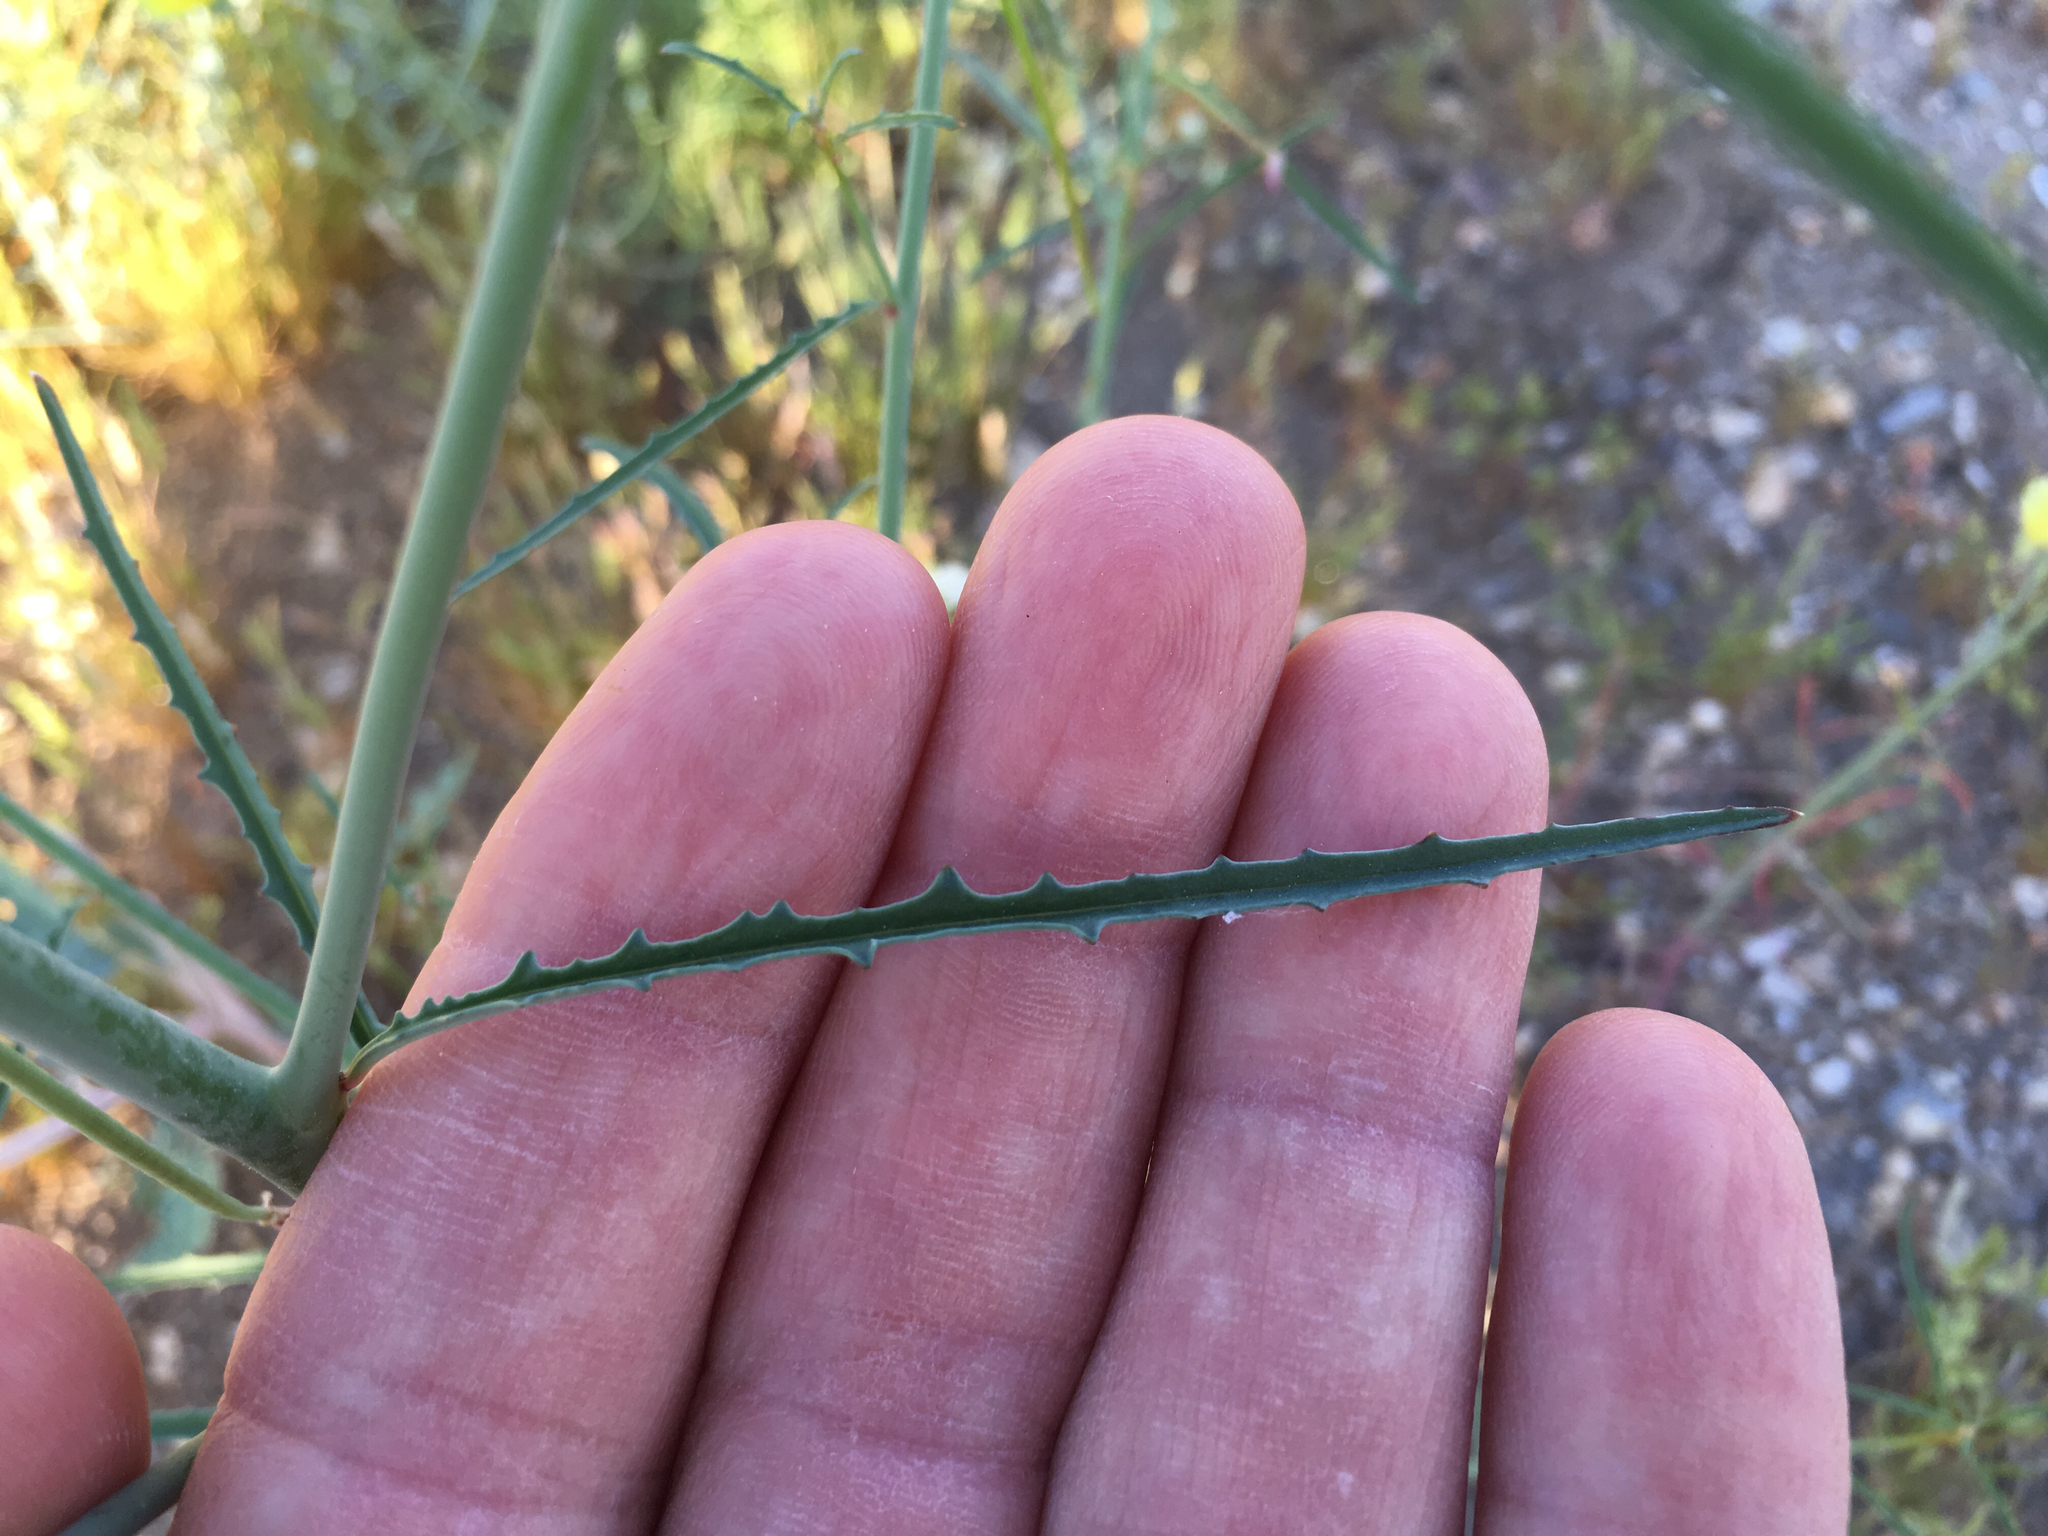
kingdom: Plantae
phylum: Tracheophyta
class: Magnoliopsida
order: Myrtales
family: Onagraceae
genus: Eulobus
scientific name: Eulobus californicus
